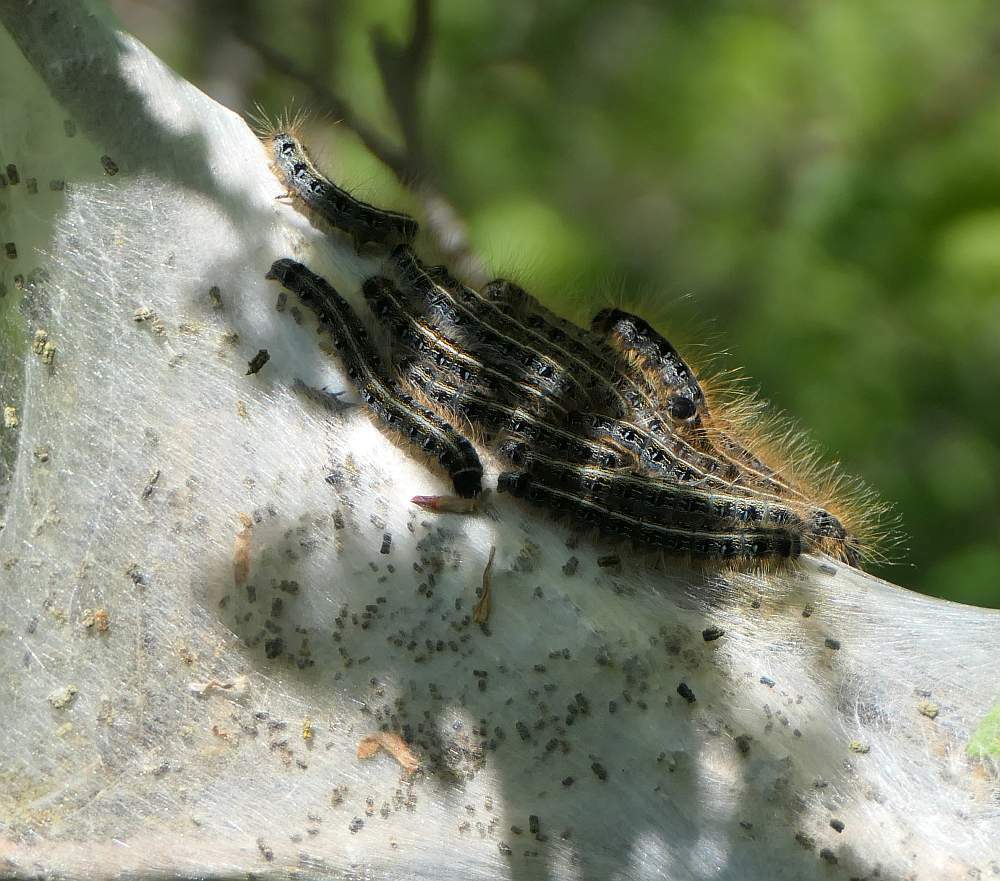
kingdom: Animalia
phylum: Arthropoda
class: Insecta
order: Lepidoptera
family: Lasiocampidae
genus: Malacosoma
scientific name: Malacosoma americana
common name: Eastern tent caterpillar moth
